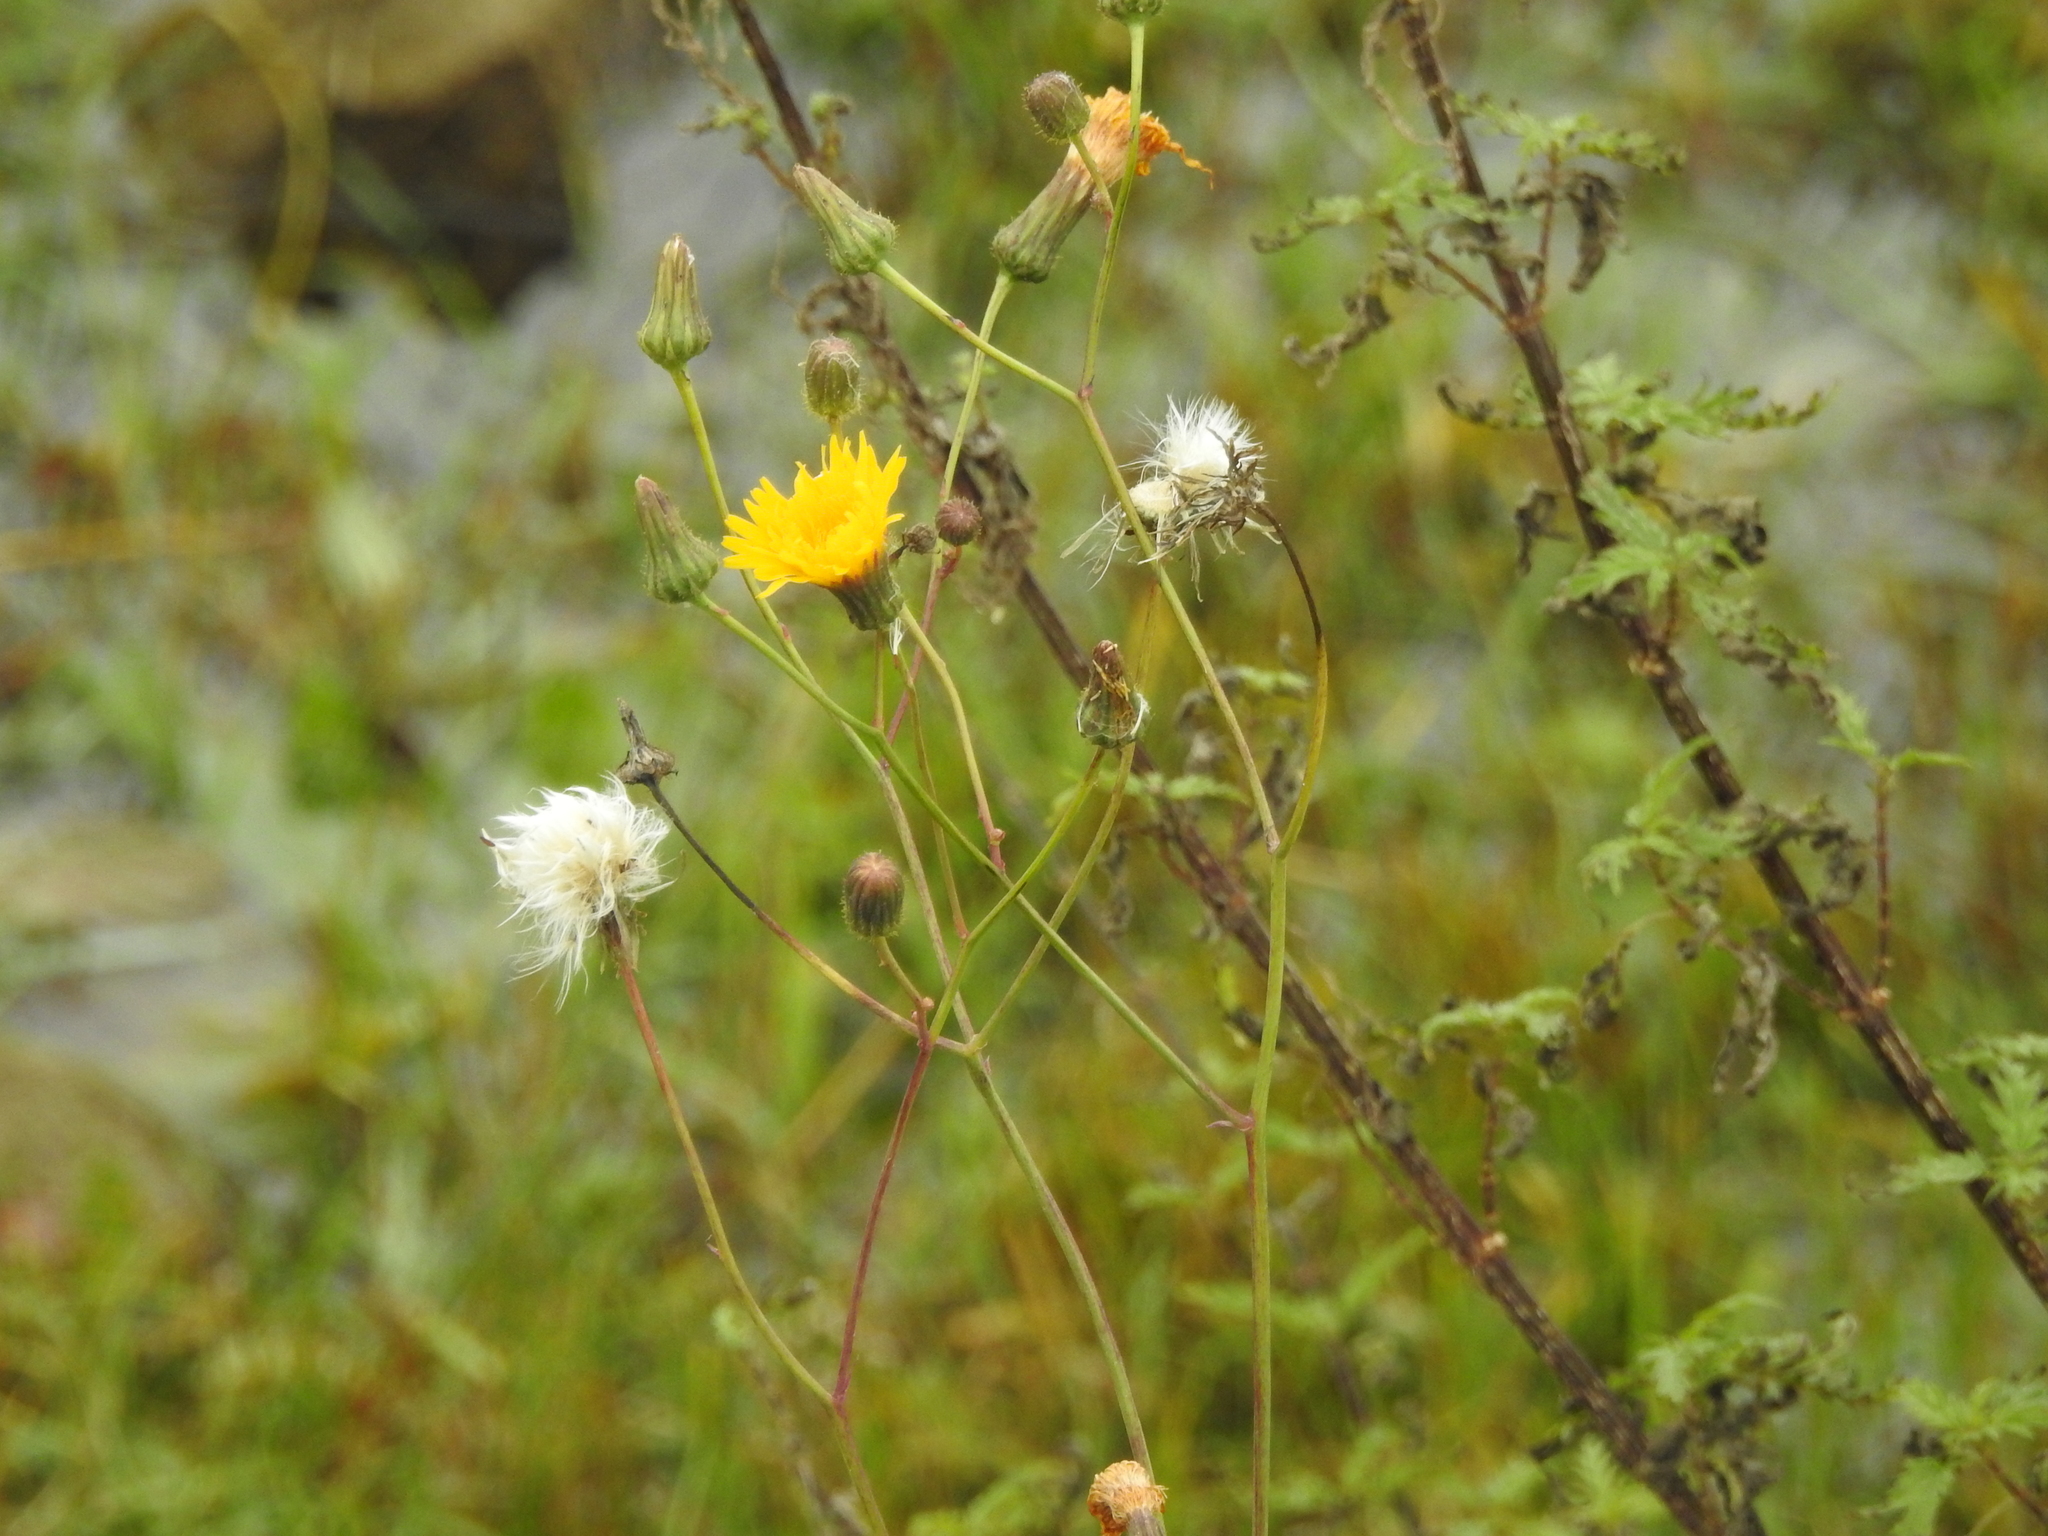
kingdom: Plantae
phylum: Tracheophyta
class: Magnoliopsida
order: Asterales
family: Asteraceae
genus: Sonchus
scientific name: Sonchus arvensis
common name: Perennial sow-thistle
